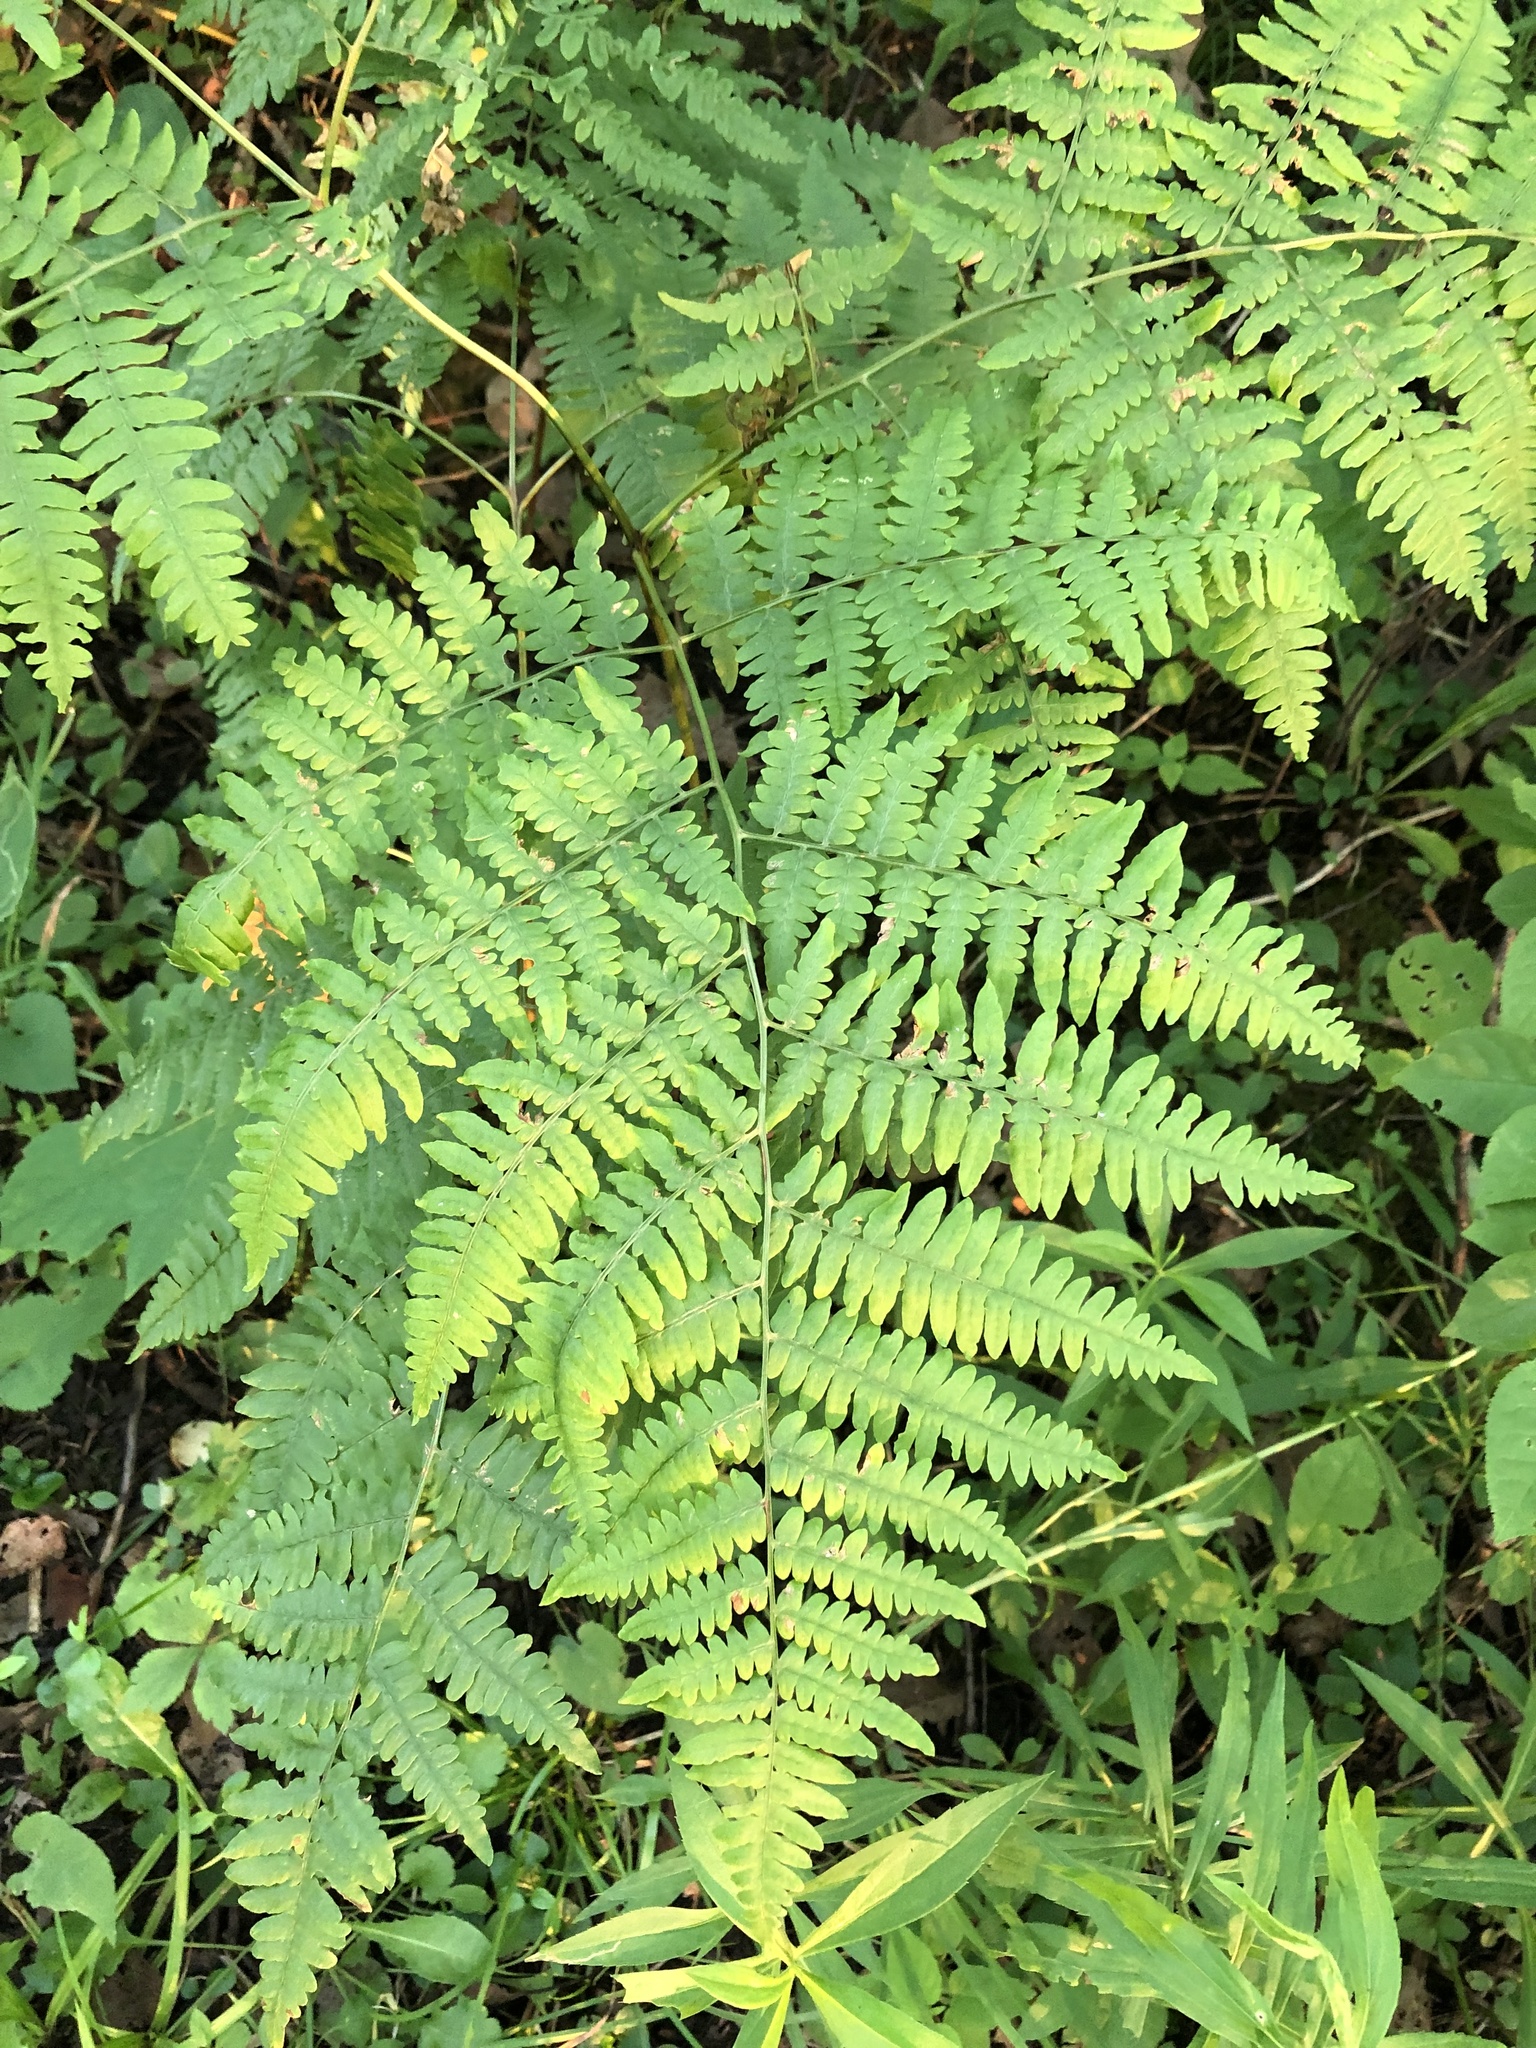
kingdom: Plantae
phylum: Tracheophyta
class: Polypodiopsida
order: Polypodiales
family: Dennstaedtiaceae
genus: Pteridium
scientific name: Pteridium aquilinum
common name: Bracken
